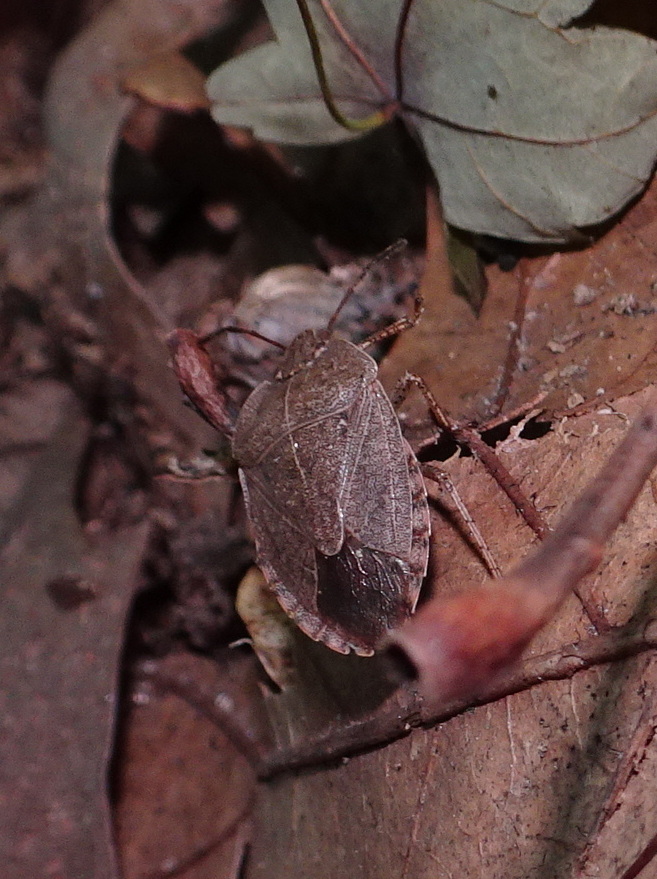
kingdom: Animalia
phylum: Arthropoda
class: Insecta
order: Hemiptera
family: Pentatomidae
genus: Menecles
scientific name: Menecles insertus
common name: Elf shoe stink bug
